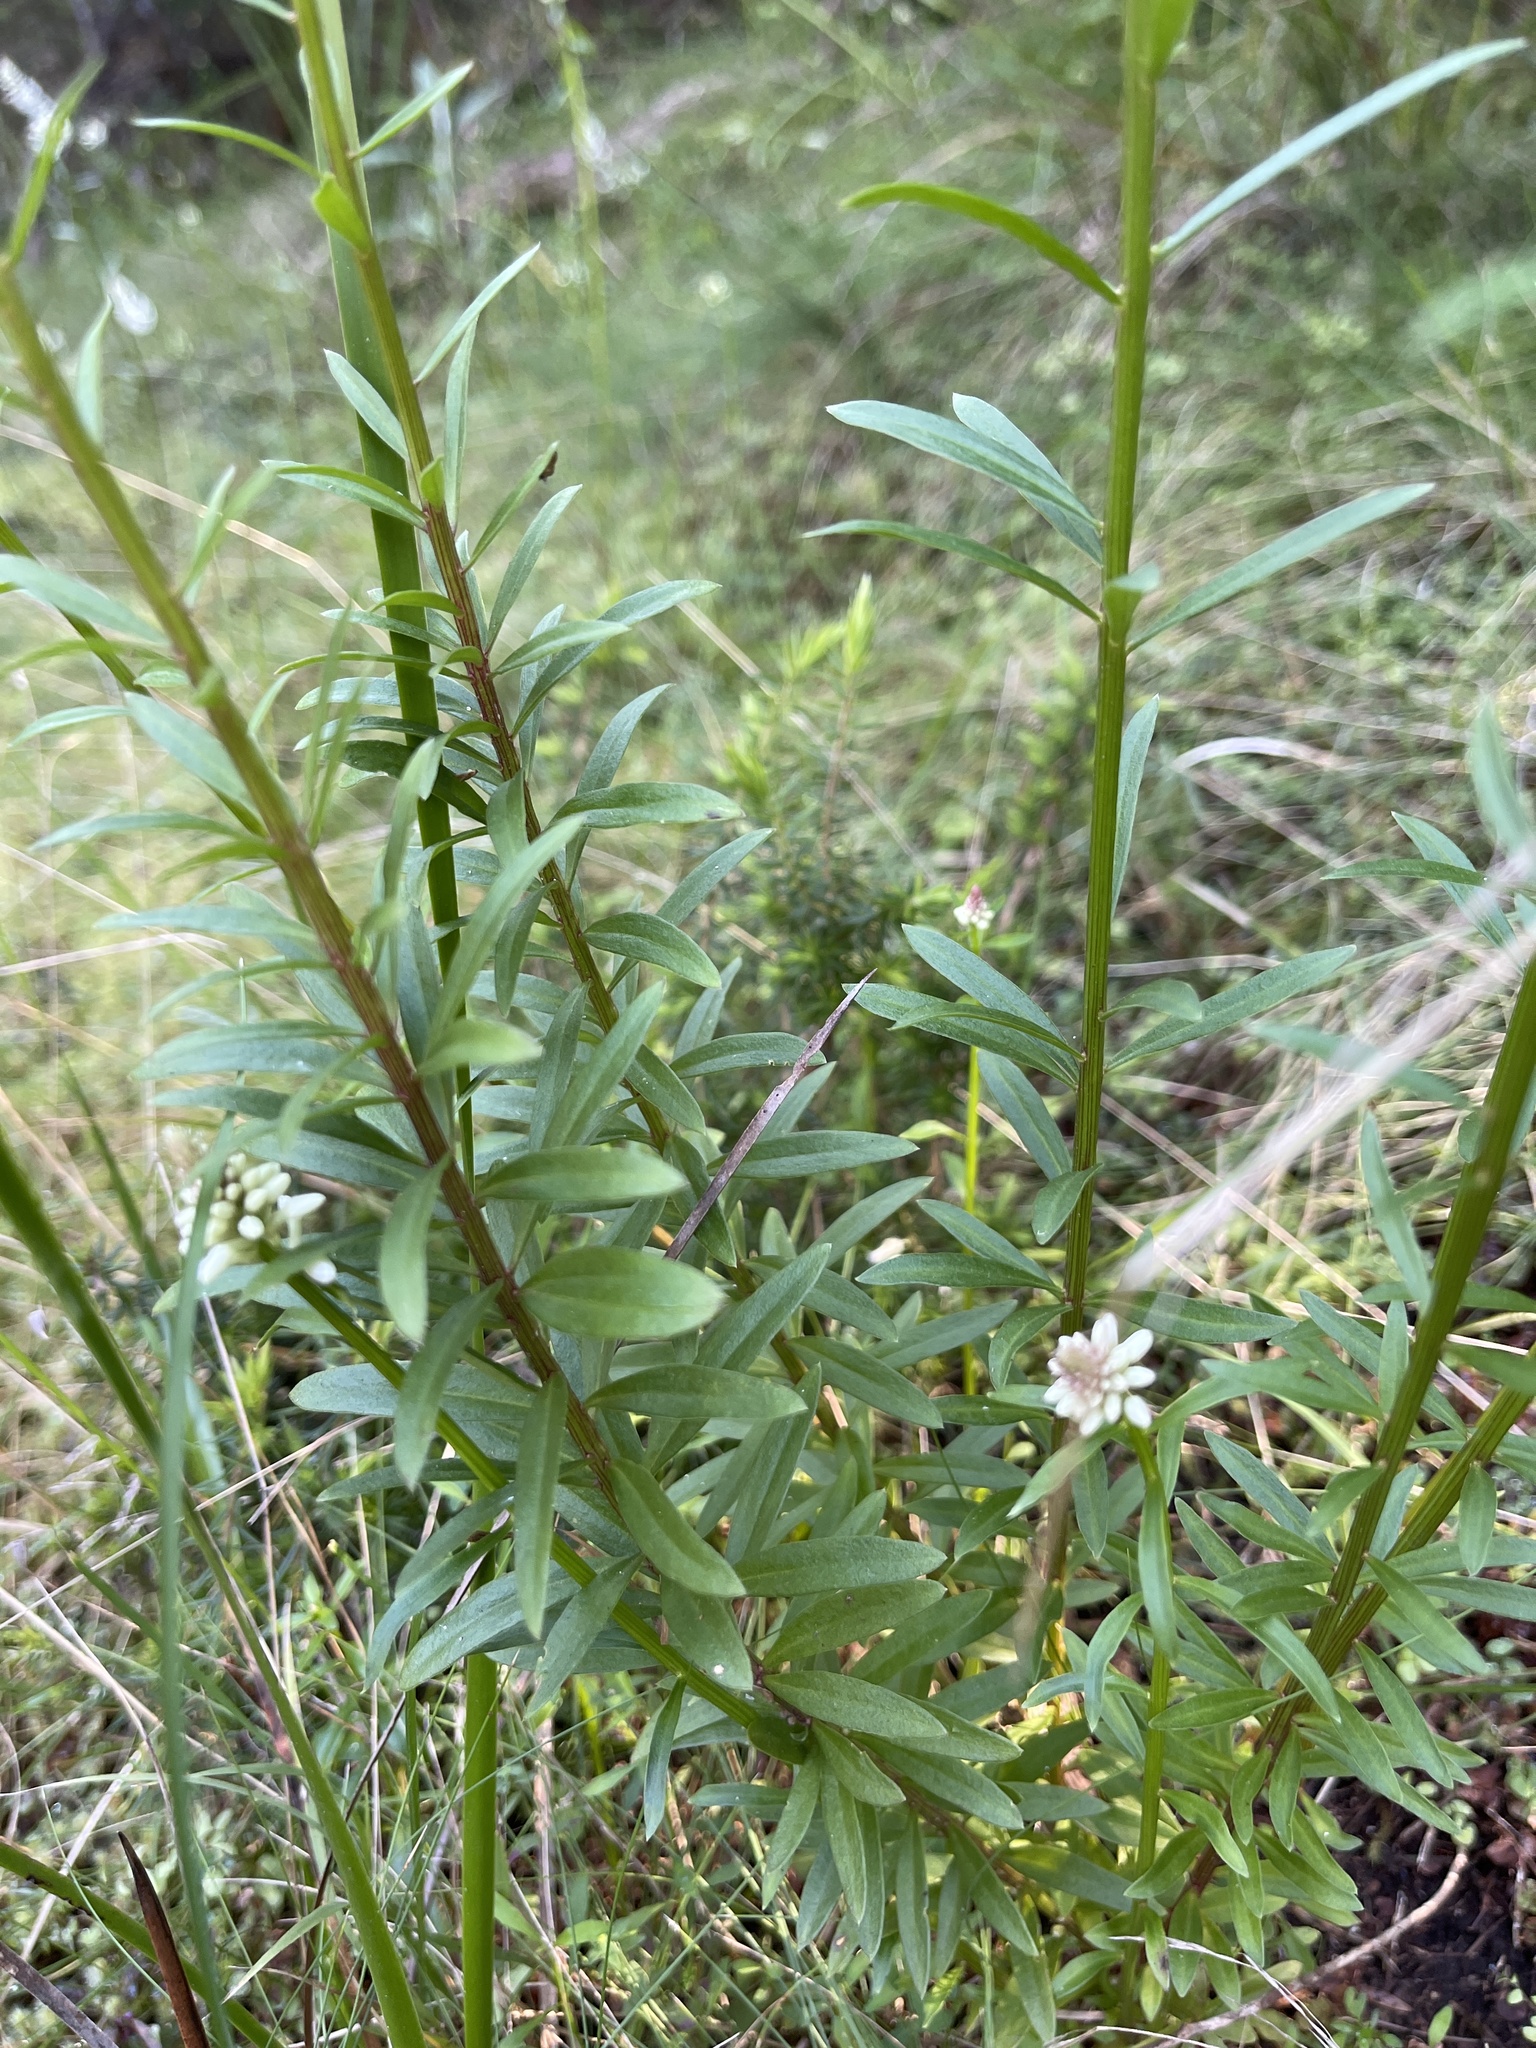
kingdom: Plantae
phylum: Tracheophyta
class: Magnoliopsida
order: Celastrales
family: Celastraceae
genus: Stackhousia
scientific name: Stackhousia monogyna
